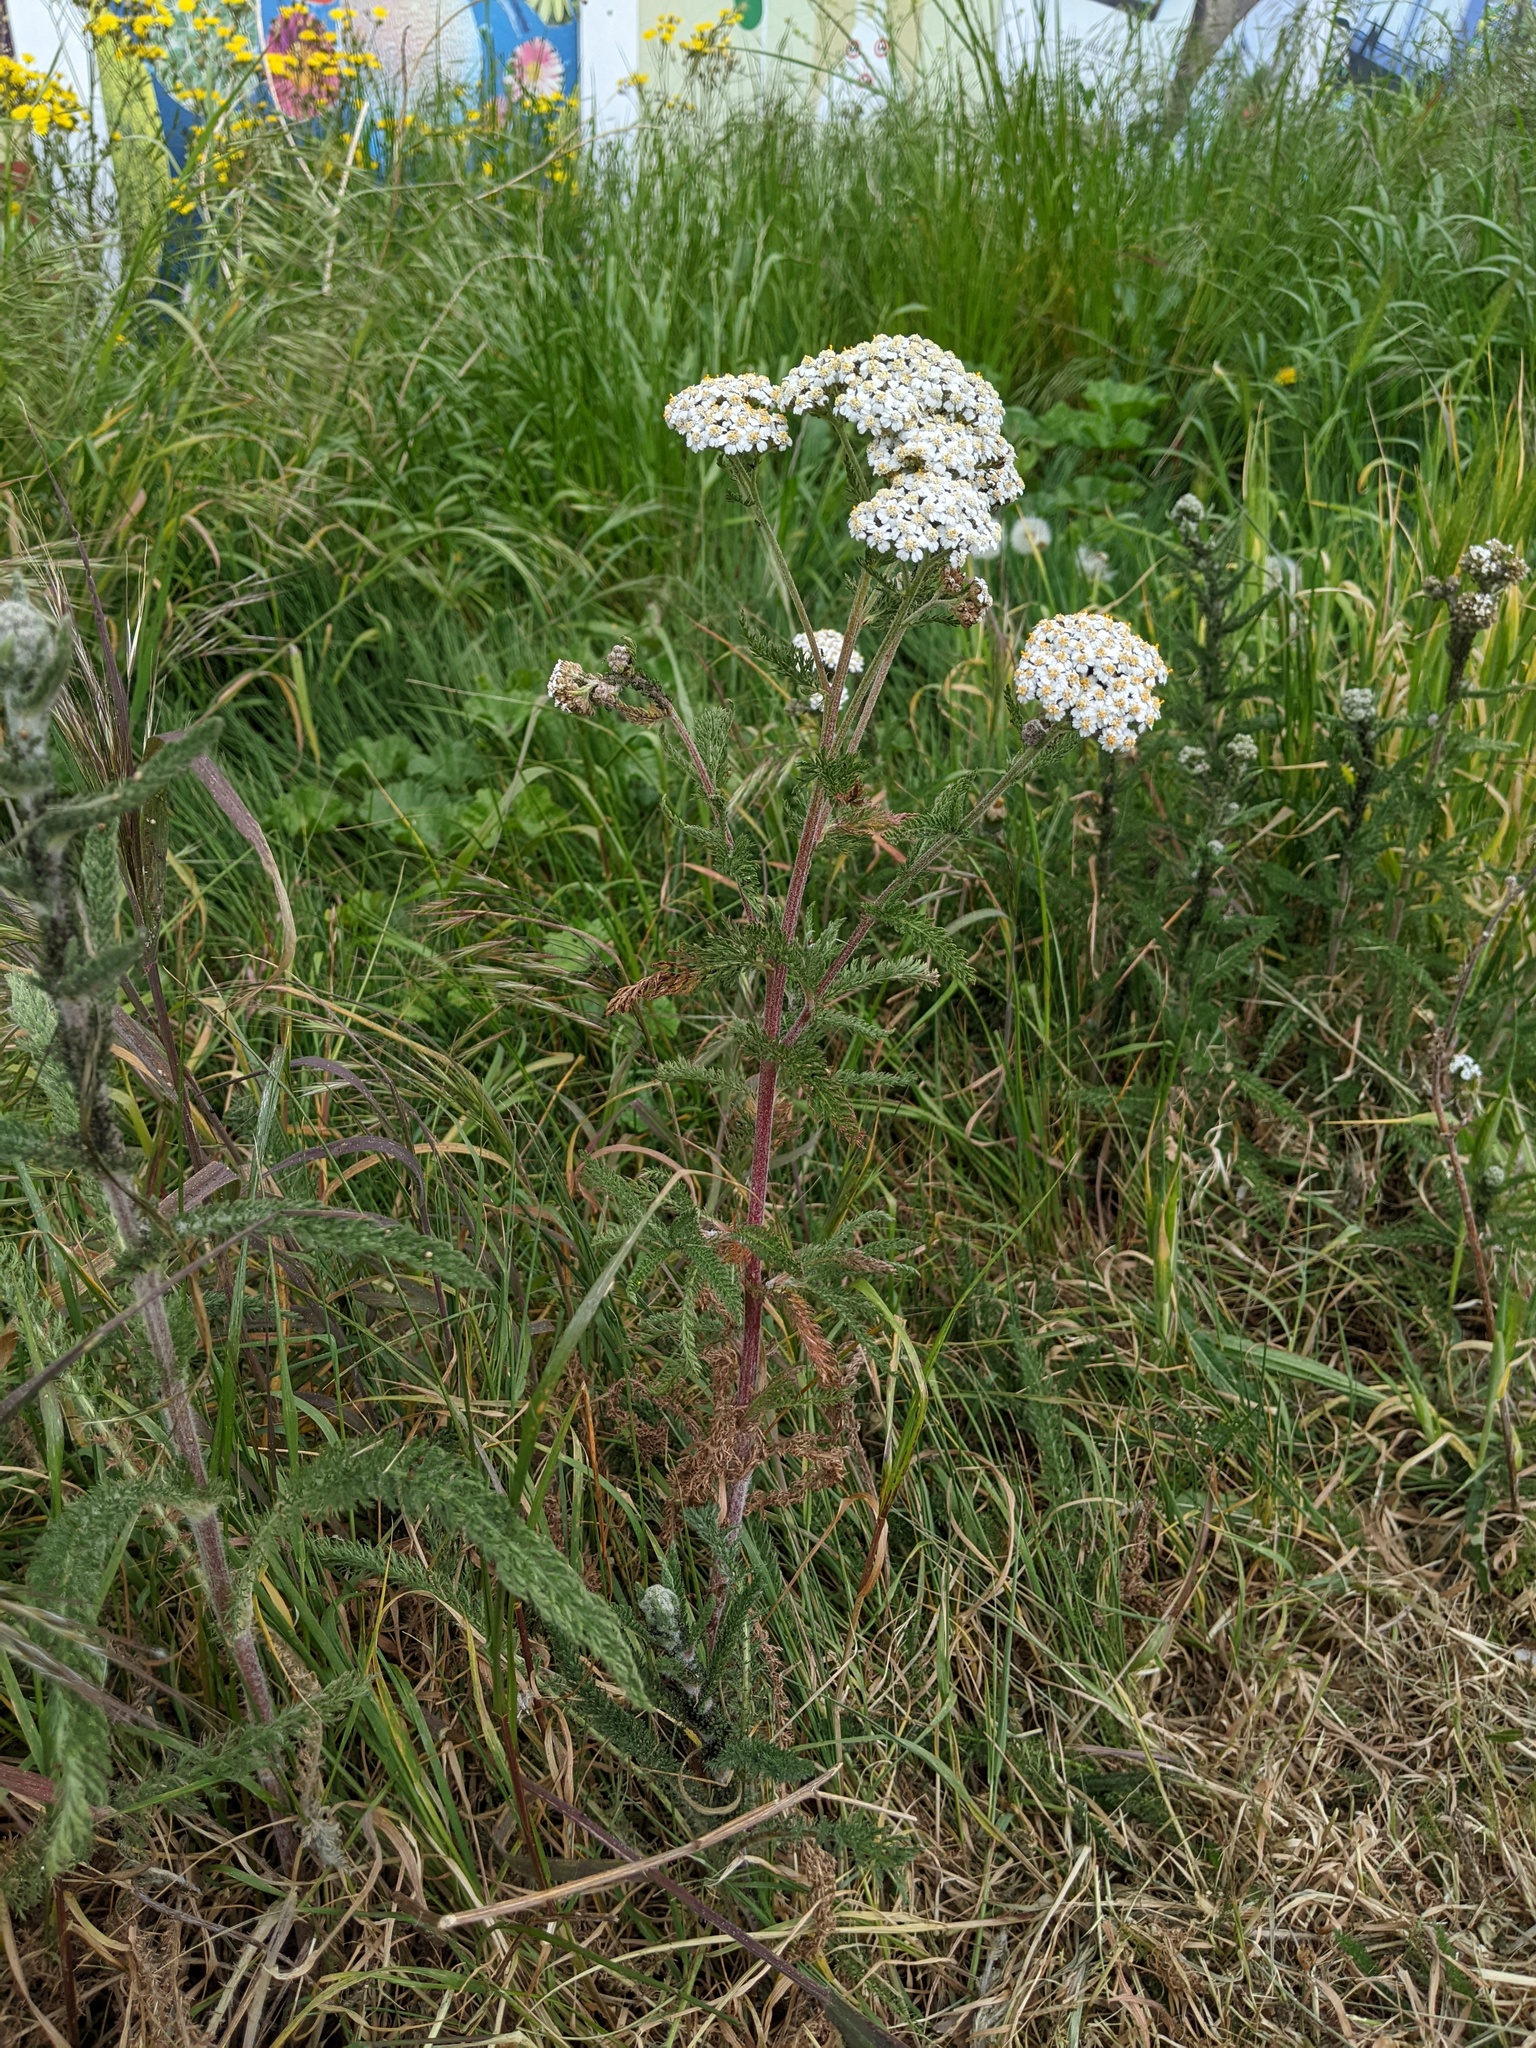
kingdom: Plantae
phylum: Tracheophyta
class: Magnoliopsida
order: Asterales
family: Asteraceae
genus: Achillea
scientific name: Achillea millefolium
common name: Yarrow
